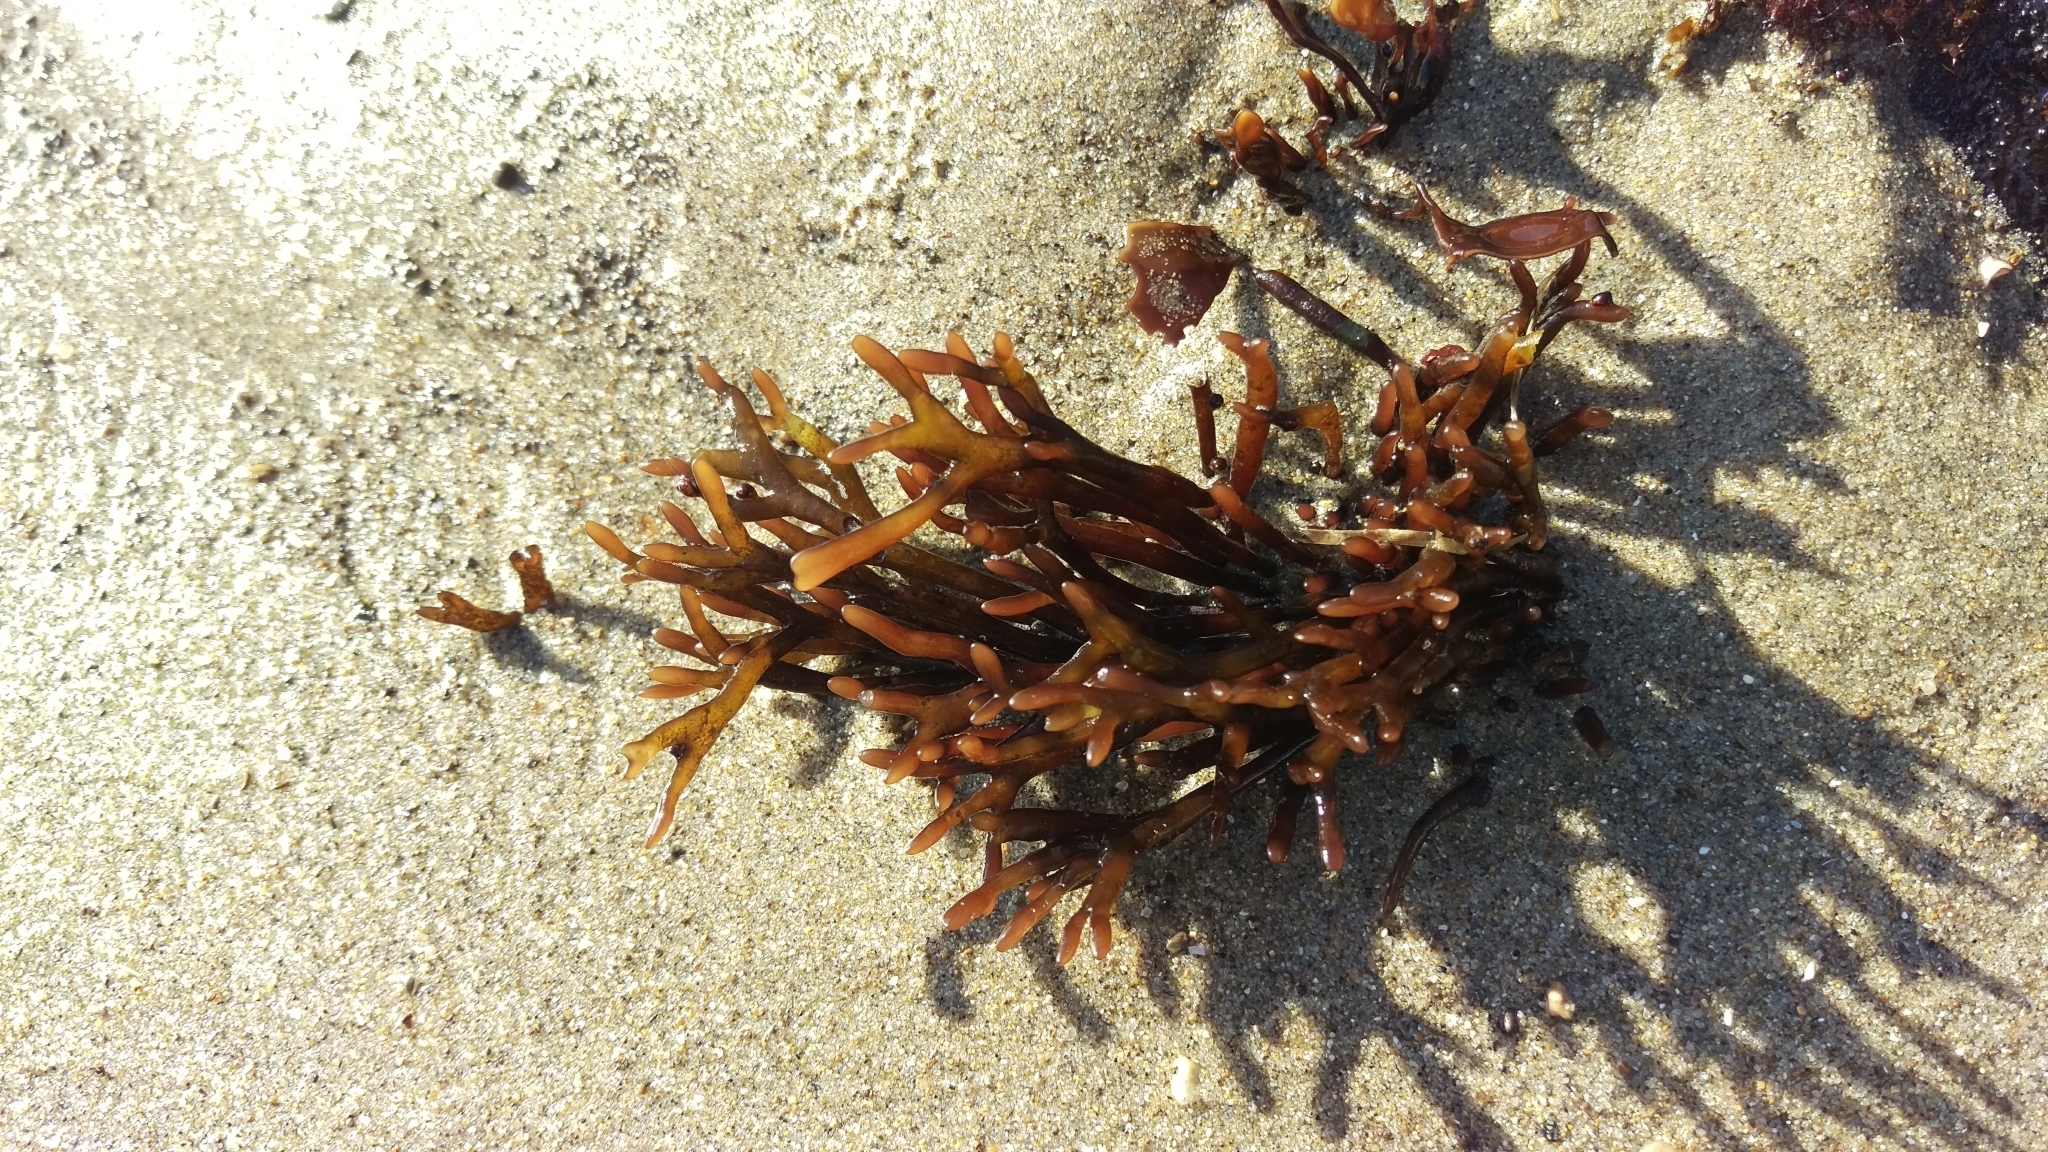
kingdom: Plantae
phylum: Rhodophyta
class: Florideophyceae
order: Gigartinales
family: Phyllophoraceae
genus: Ahnfeltiopsis
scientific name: Ahnfeltiopsis linearis
